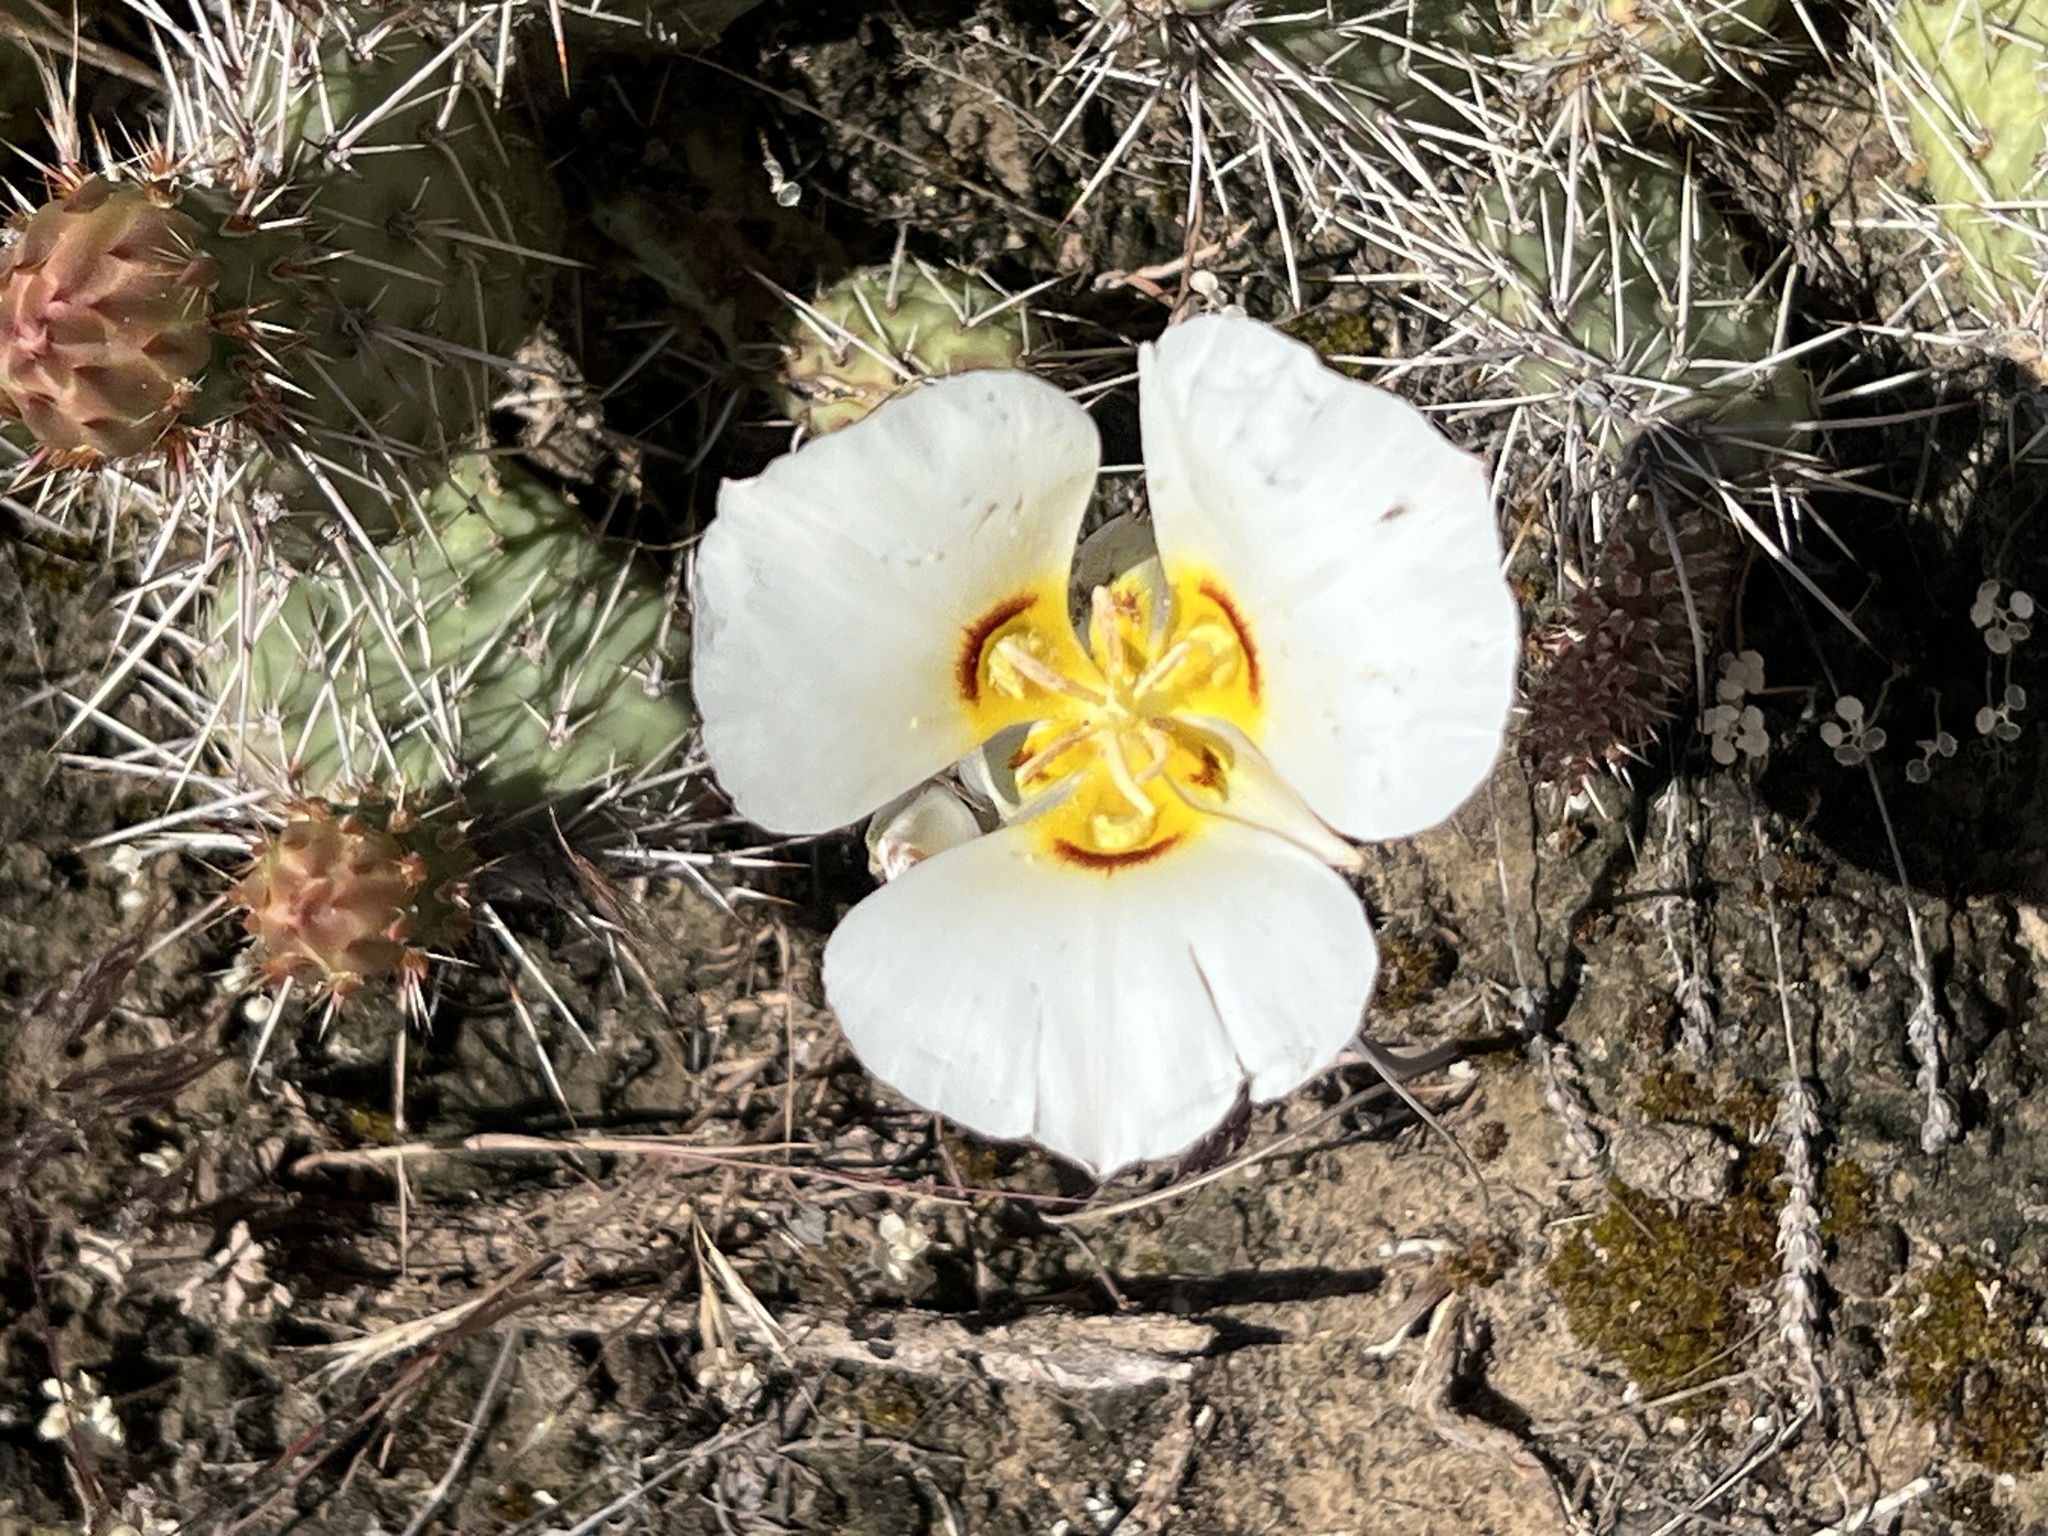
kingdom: Plantae
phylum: Tracheophyta
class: Liliopsida
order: Liliales
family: Liliaceae
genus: Calochortus
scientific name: Calochortus nuttallii
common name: Sego-lily
